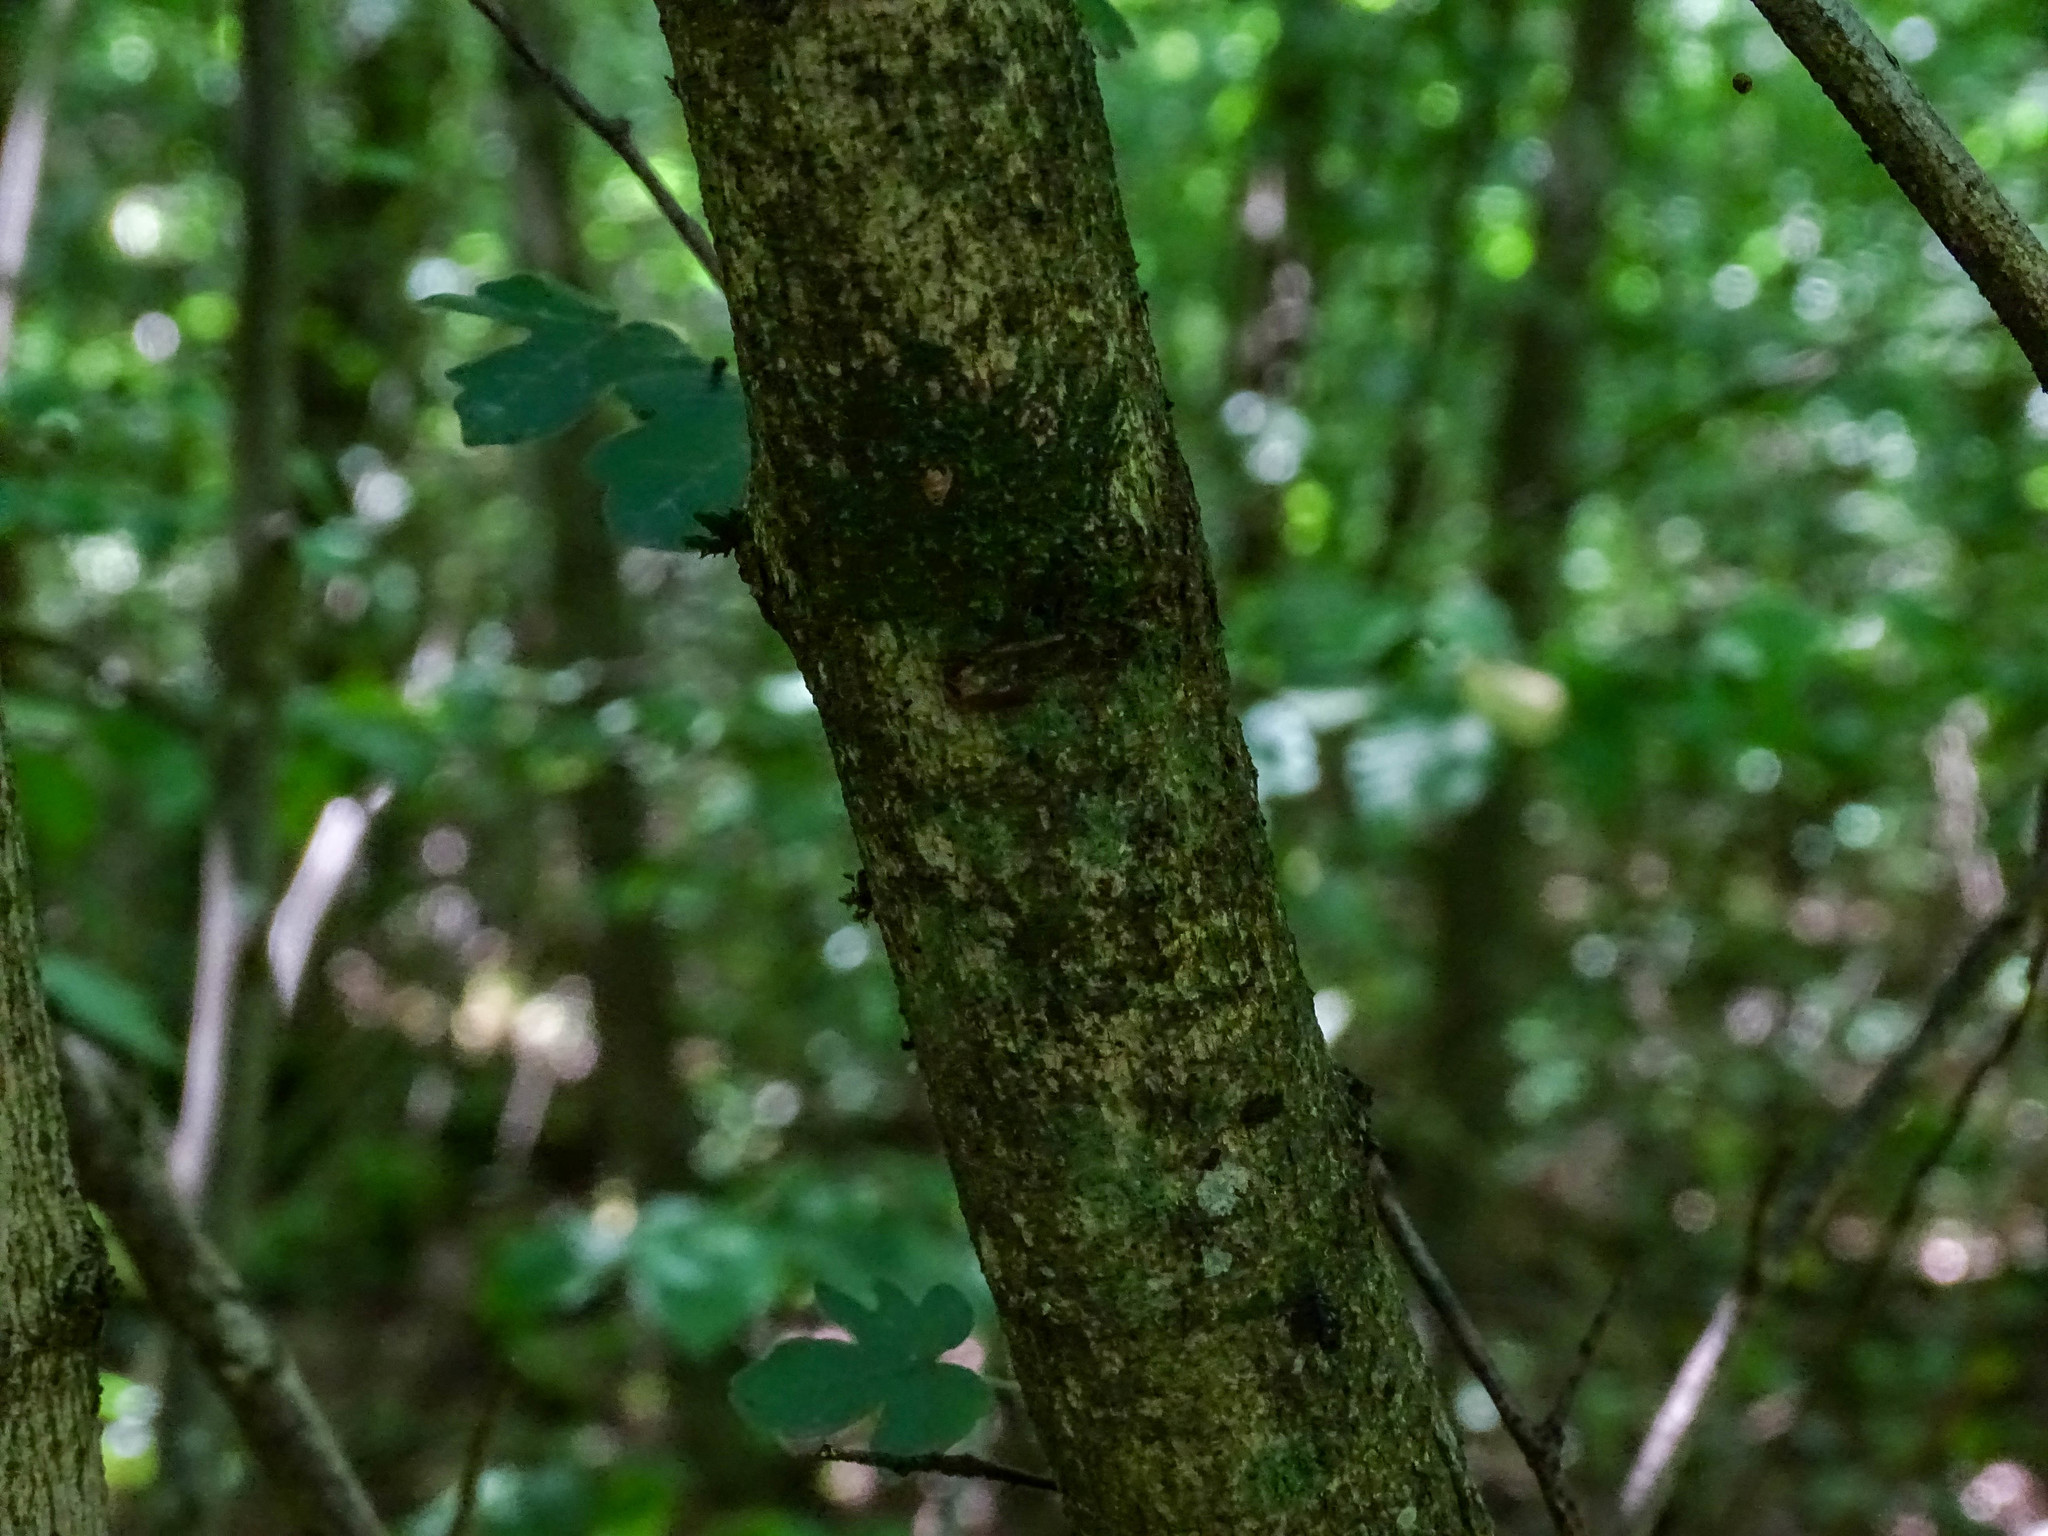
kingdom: Plantae
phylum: Tracheophyta
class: Magnoliopsida
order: Sapindales
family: Sapindaceae
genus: Acer
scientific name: Acer campestre
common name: Field maple
